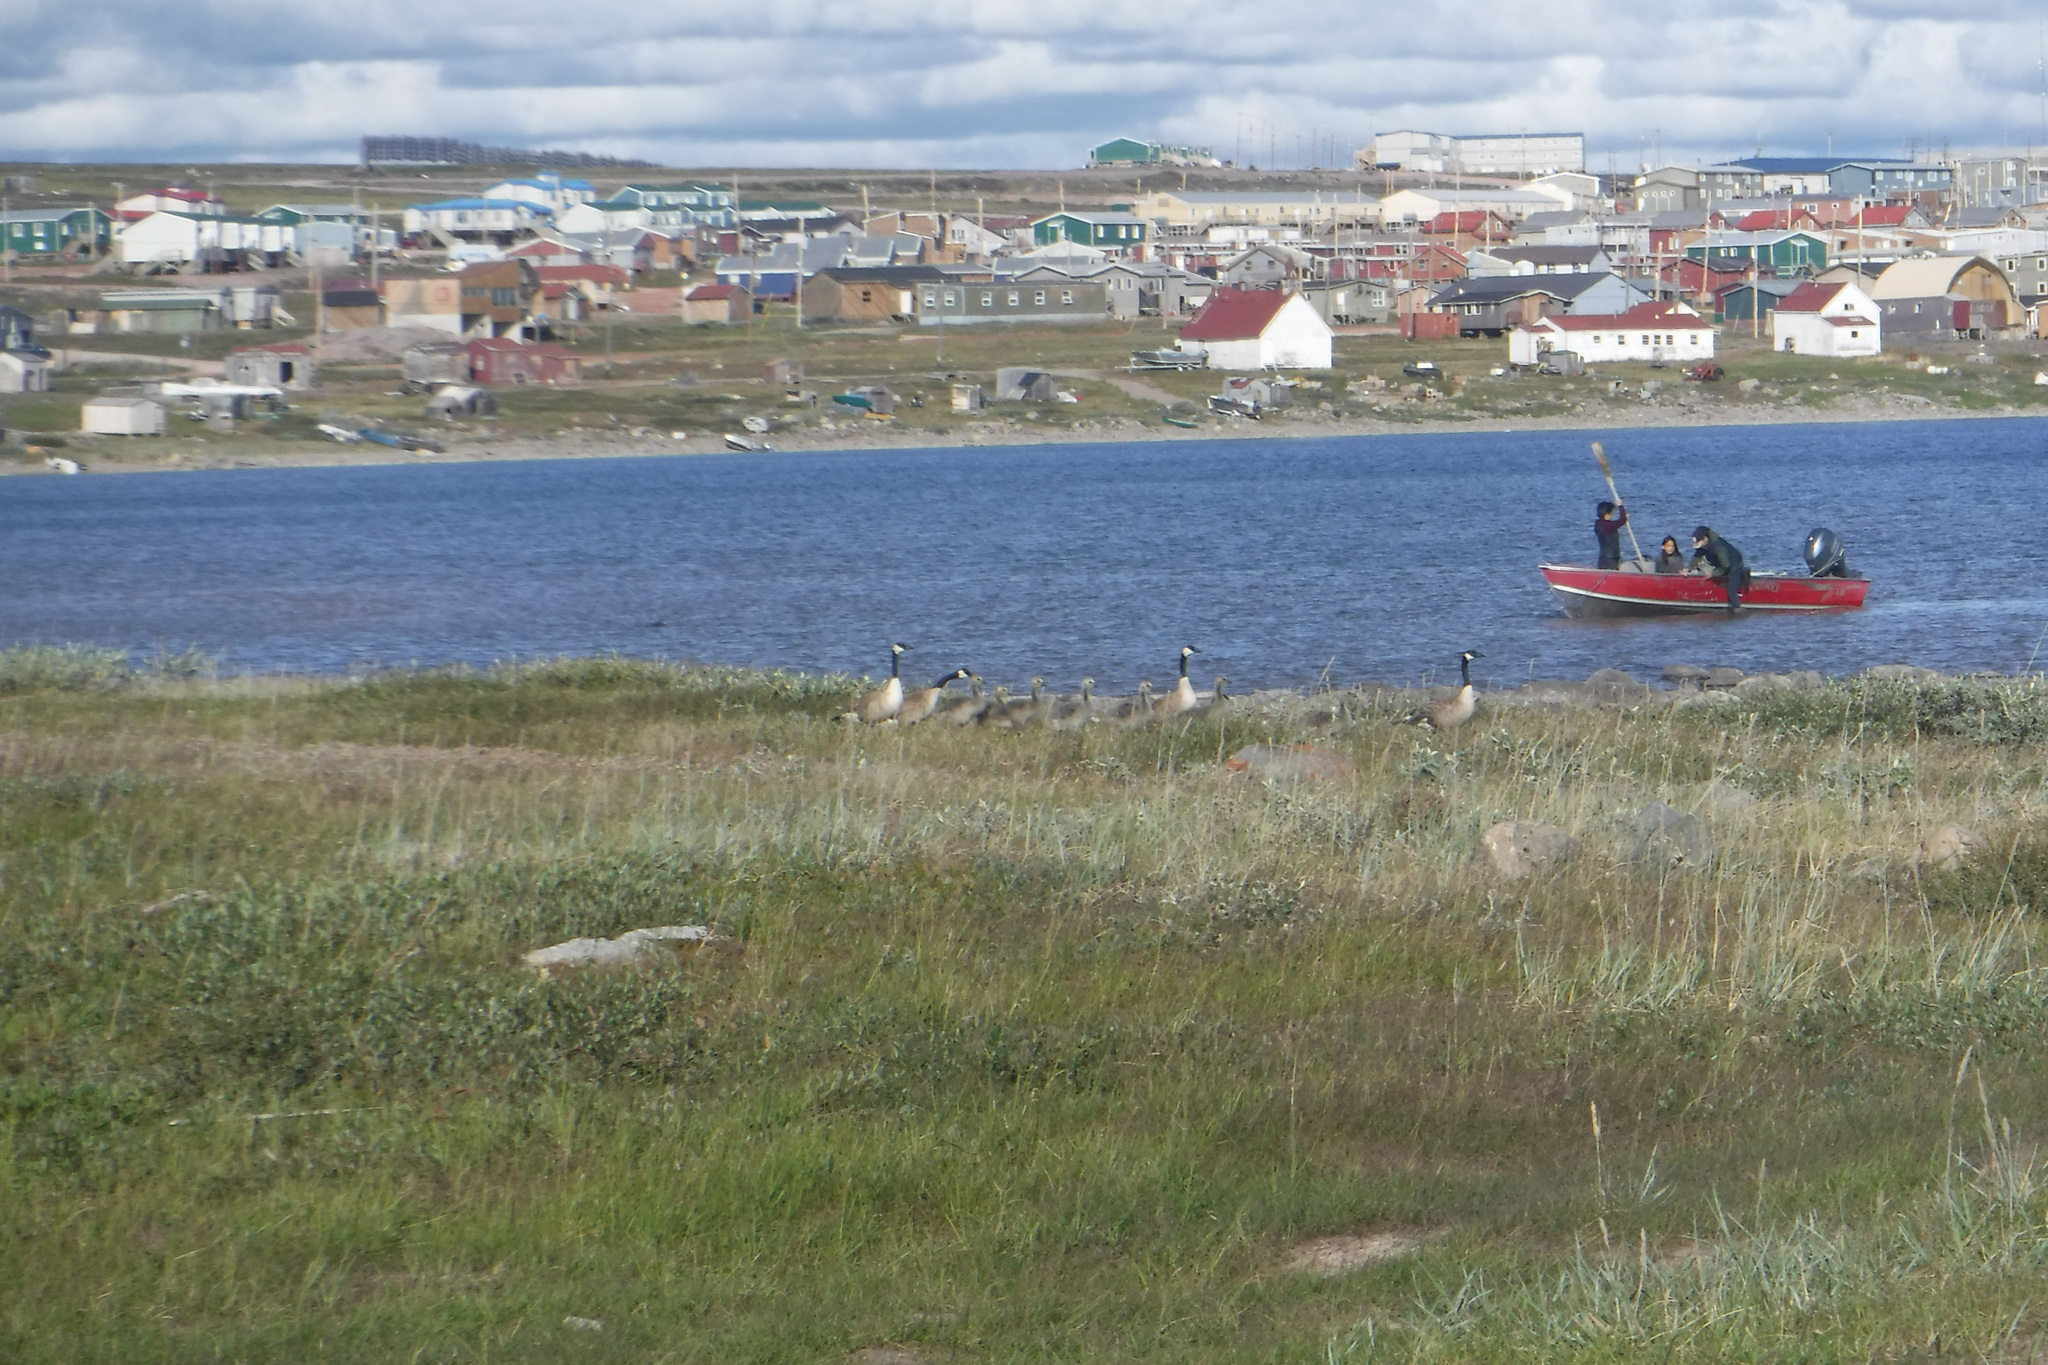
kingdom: Animalia
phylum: Chordata
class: Aves
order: Anseriformes
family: Anatidae
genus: Branta
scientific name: Branta canadensis
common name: Canada goose
